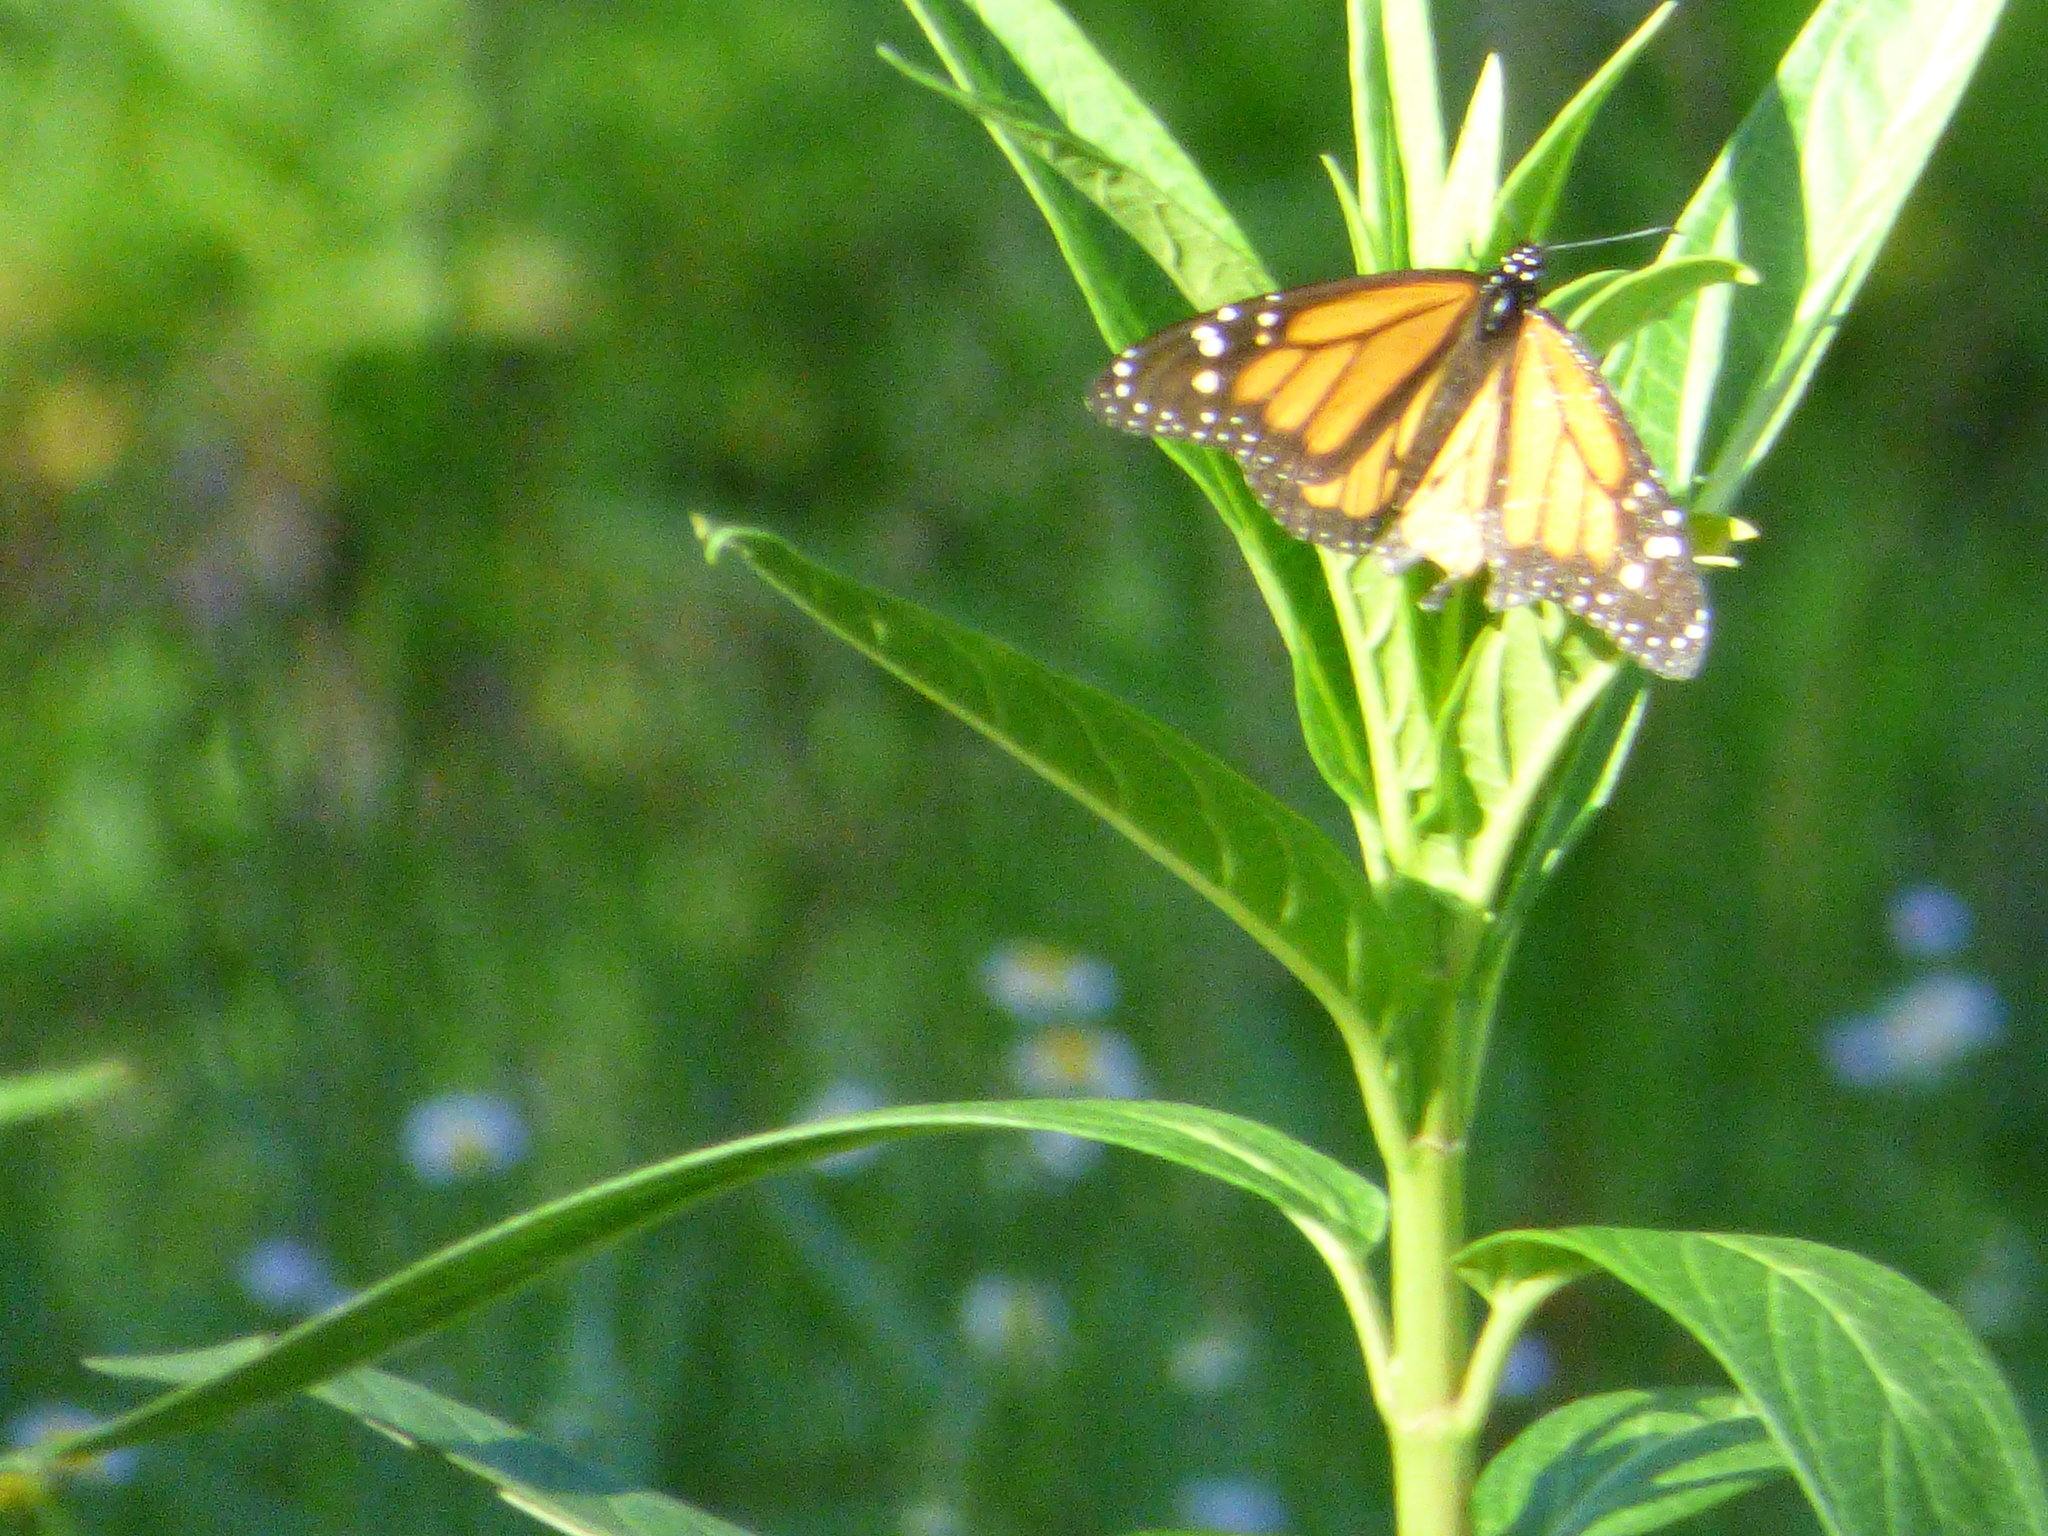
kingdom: Animalia
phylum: Arthropoda
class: Insecta
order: Lepidoptera
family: Nymphalidae
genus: Danaus
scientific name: Danaus plexippus
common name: Monarch
